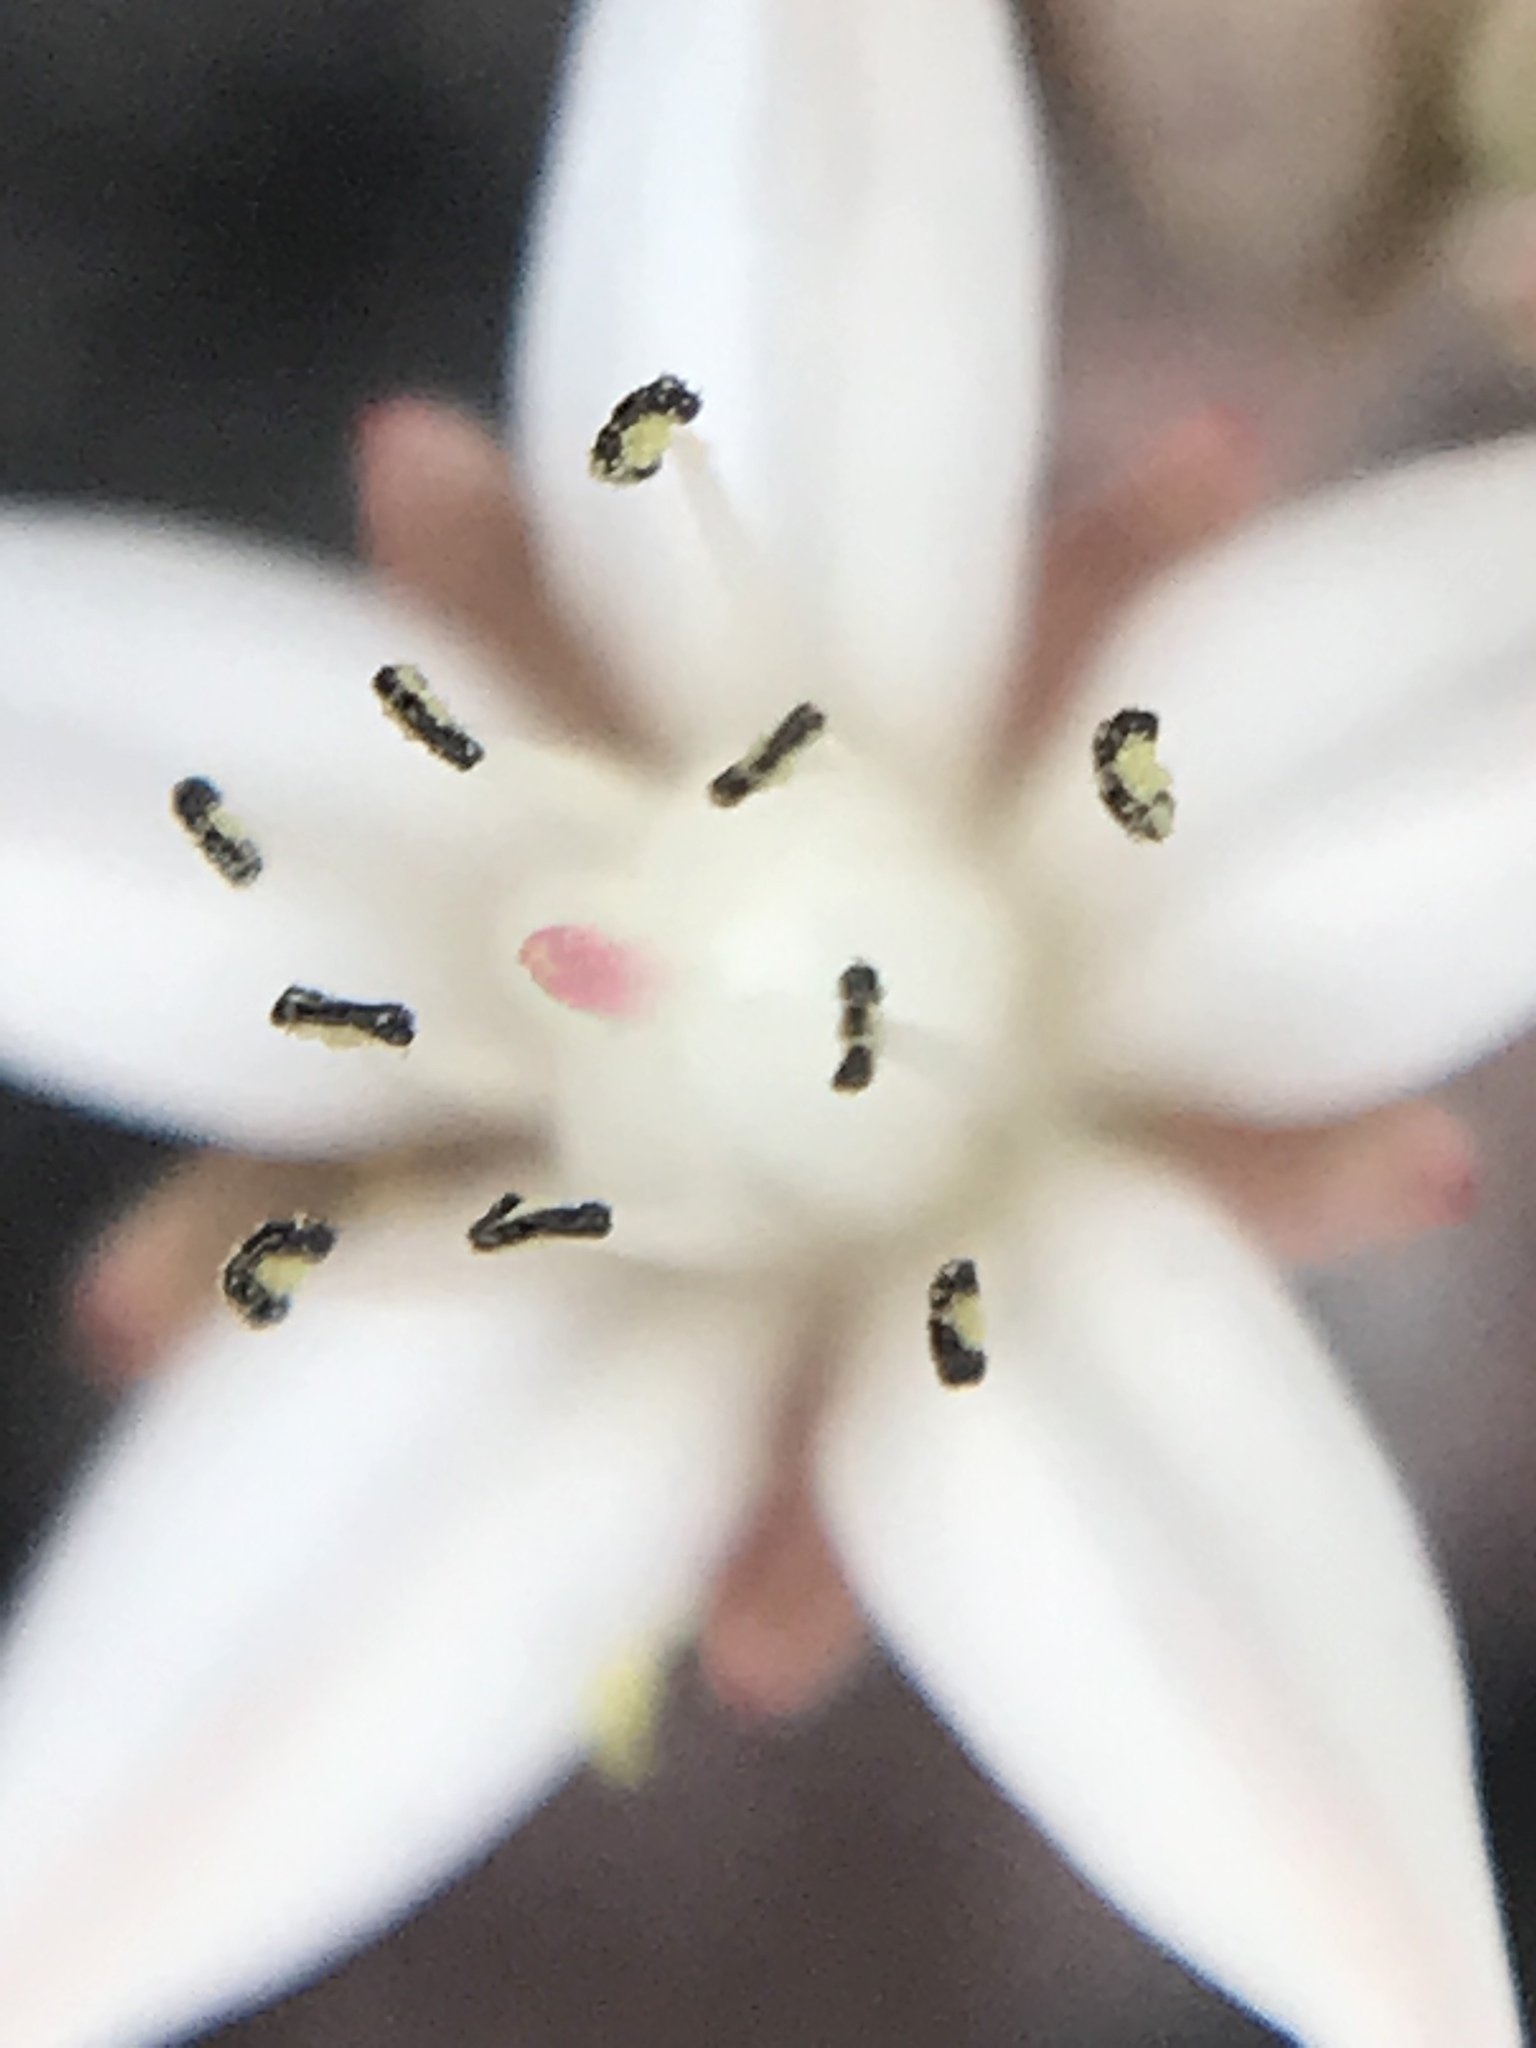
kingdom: Plantae
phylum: Tracheophyta
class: Magnoliopsida
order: Saxifragales
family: Crassulaceae
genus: Sedum
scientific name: Sedum potosinum
